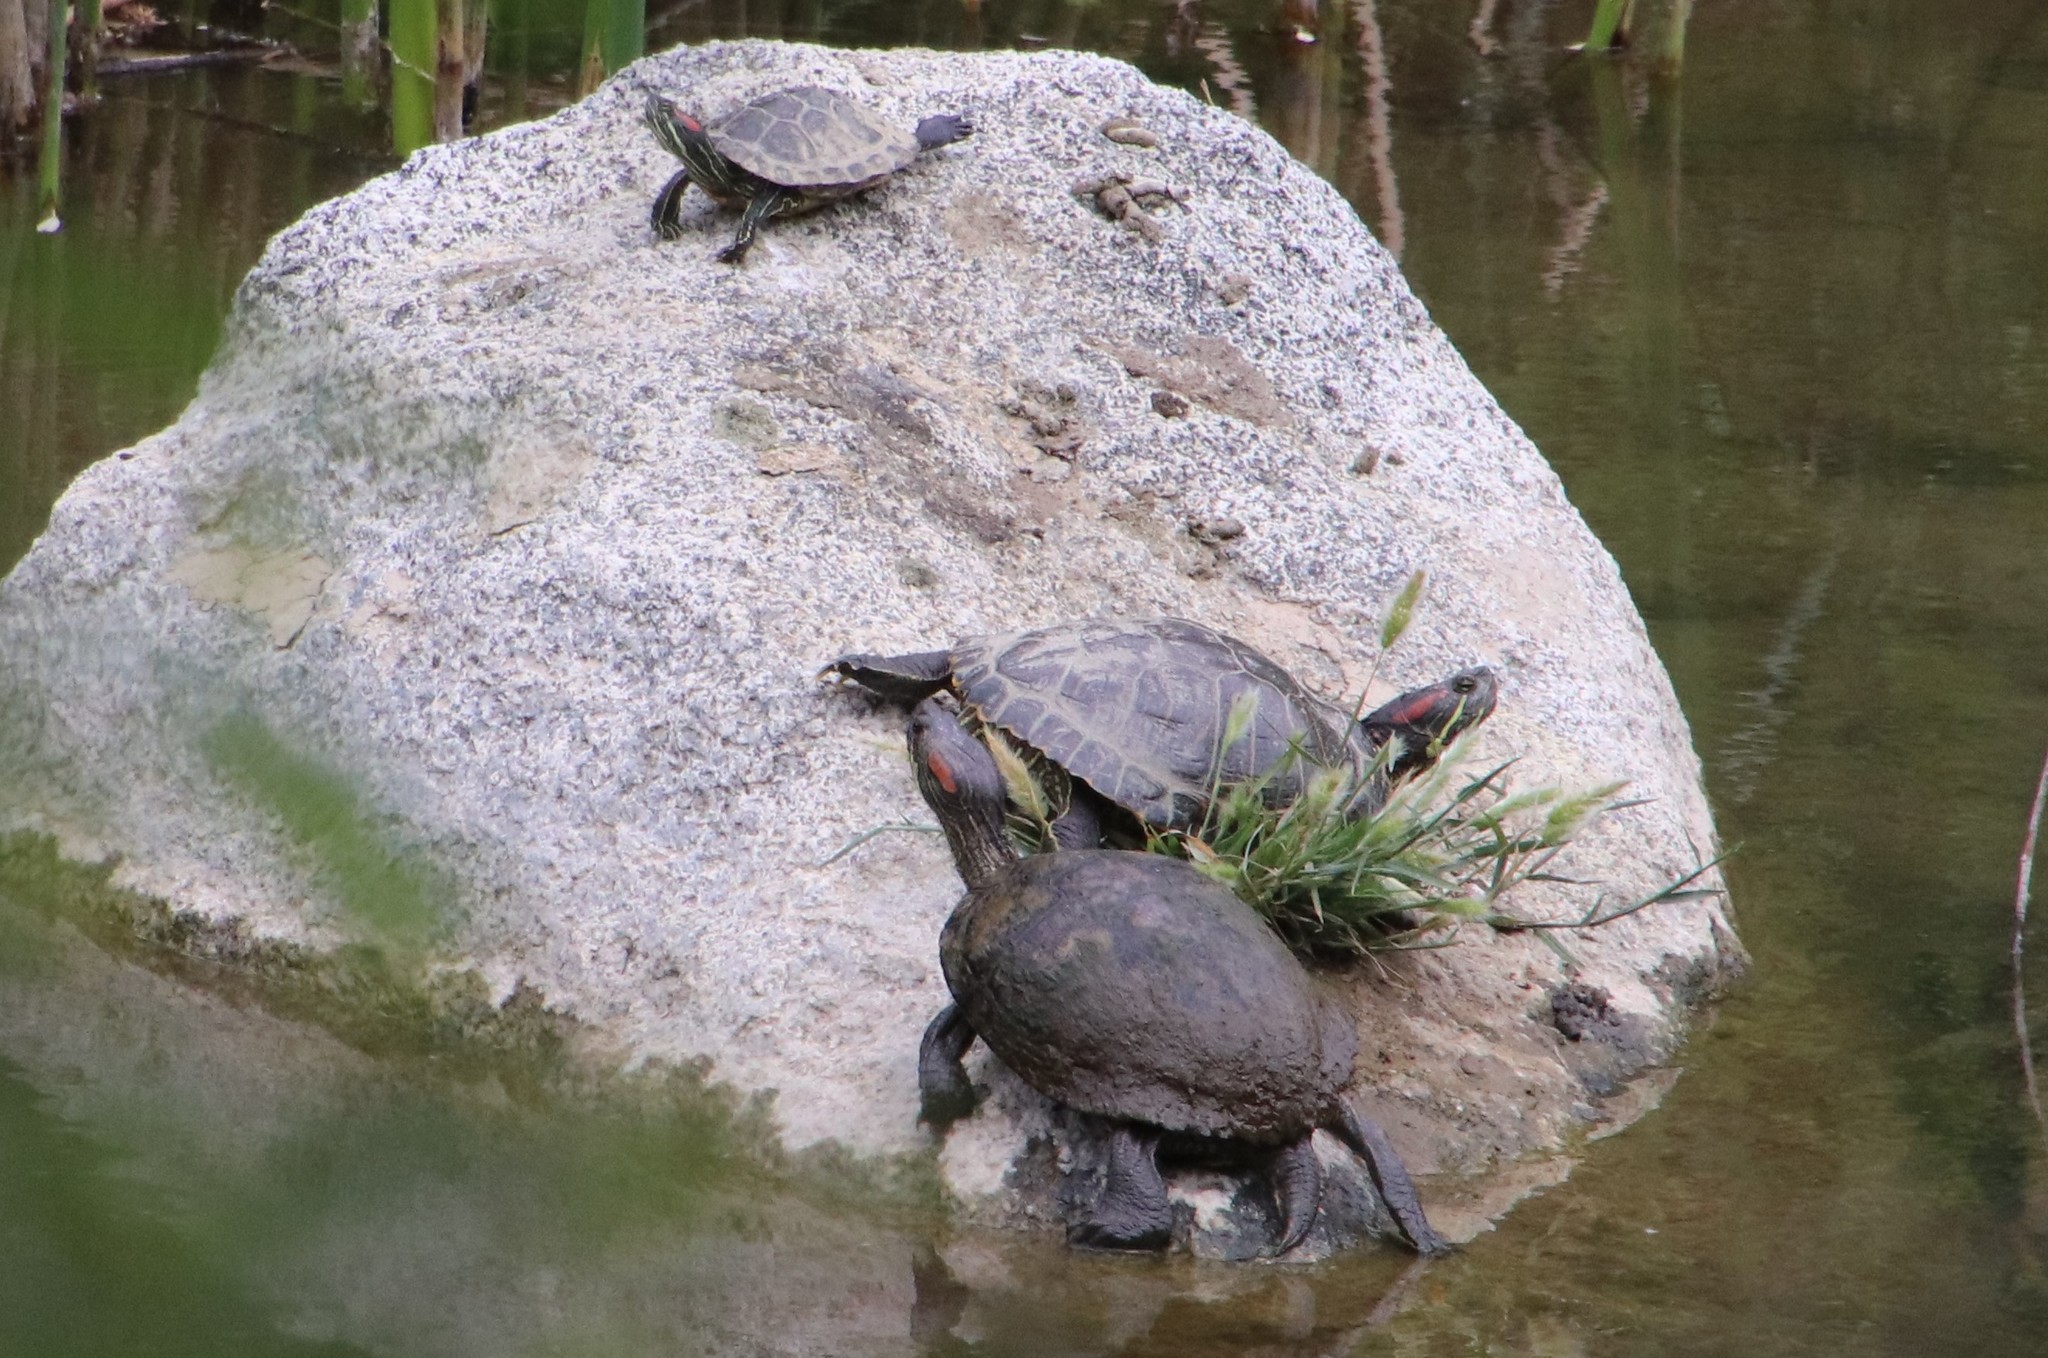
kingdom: Animalia
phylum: Chordata
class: Testudines
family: Emydidae
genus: Trachemys
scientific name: Trachemys scripta
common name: Slider
